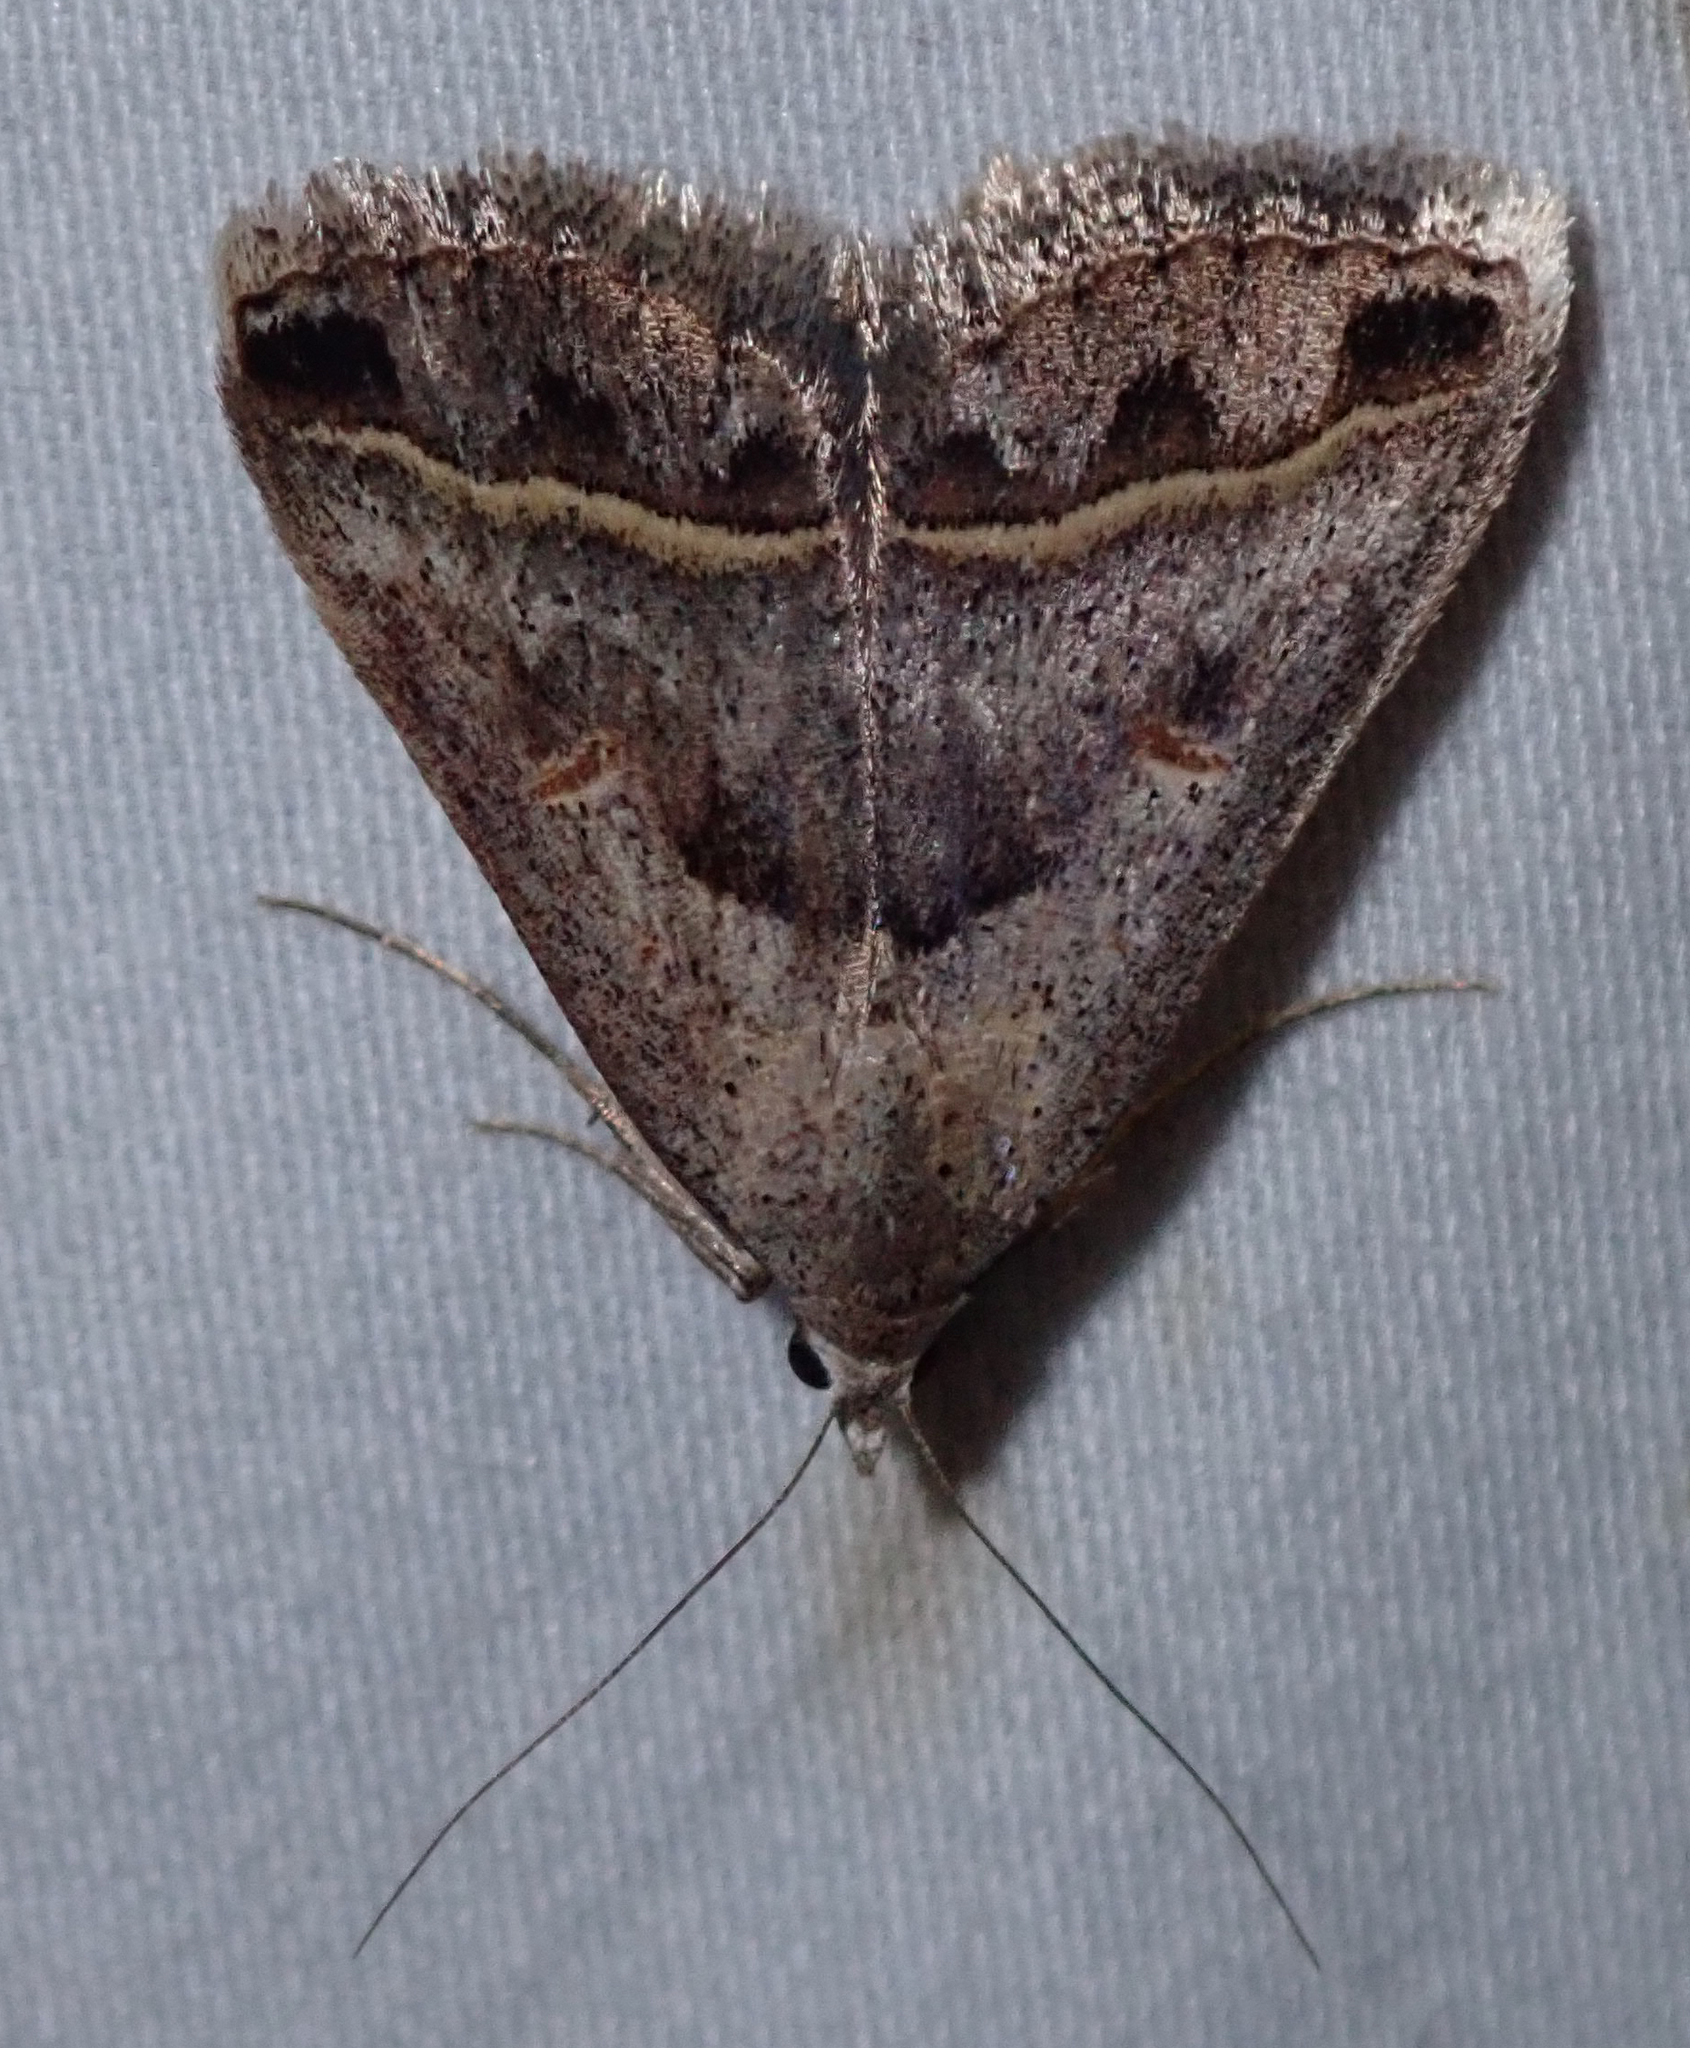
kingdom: Animalia
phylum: Arthropoda
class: Insecta
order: Lepidoptera
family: Erebidae
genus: Acantholipes
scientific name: Acantholipes trimeni
